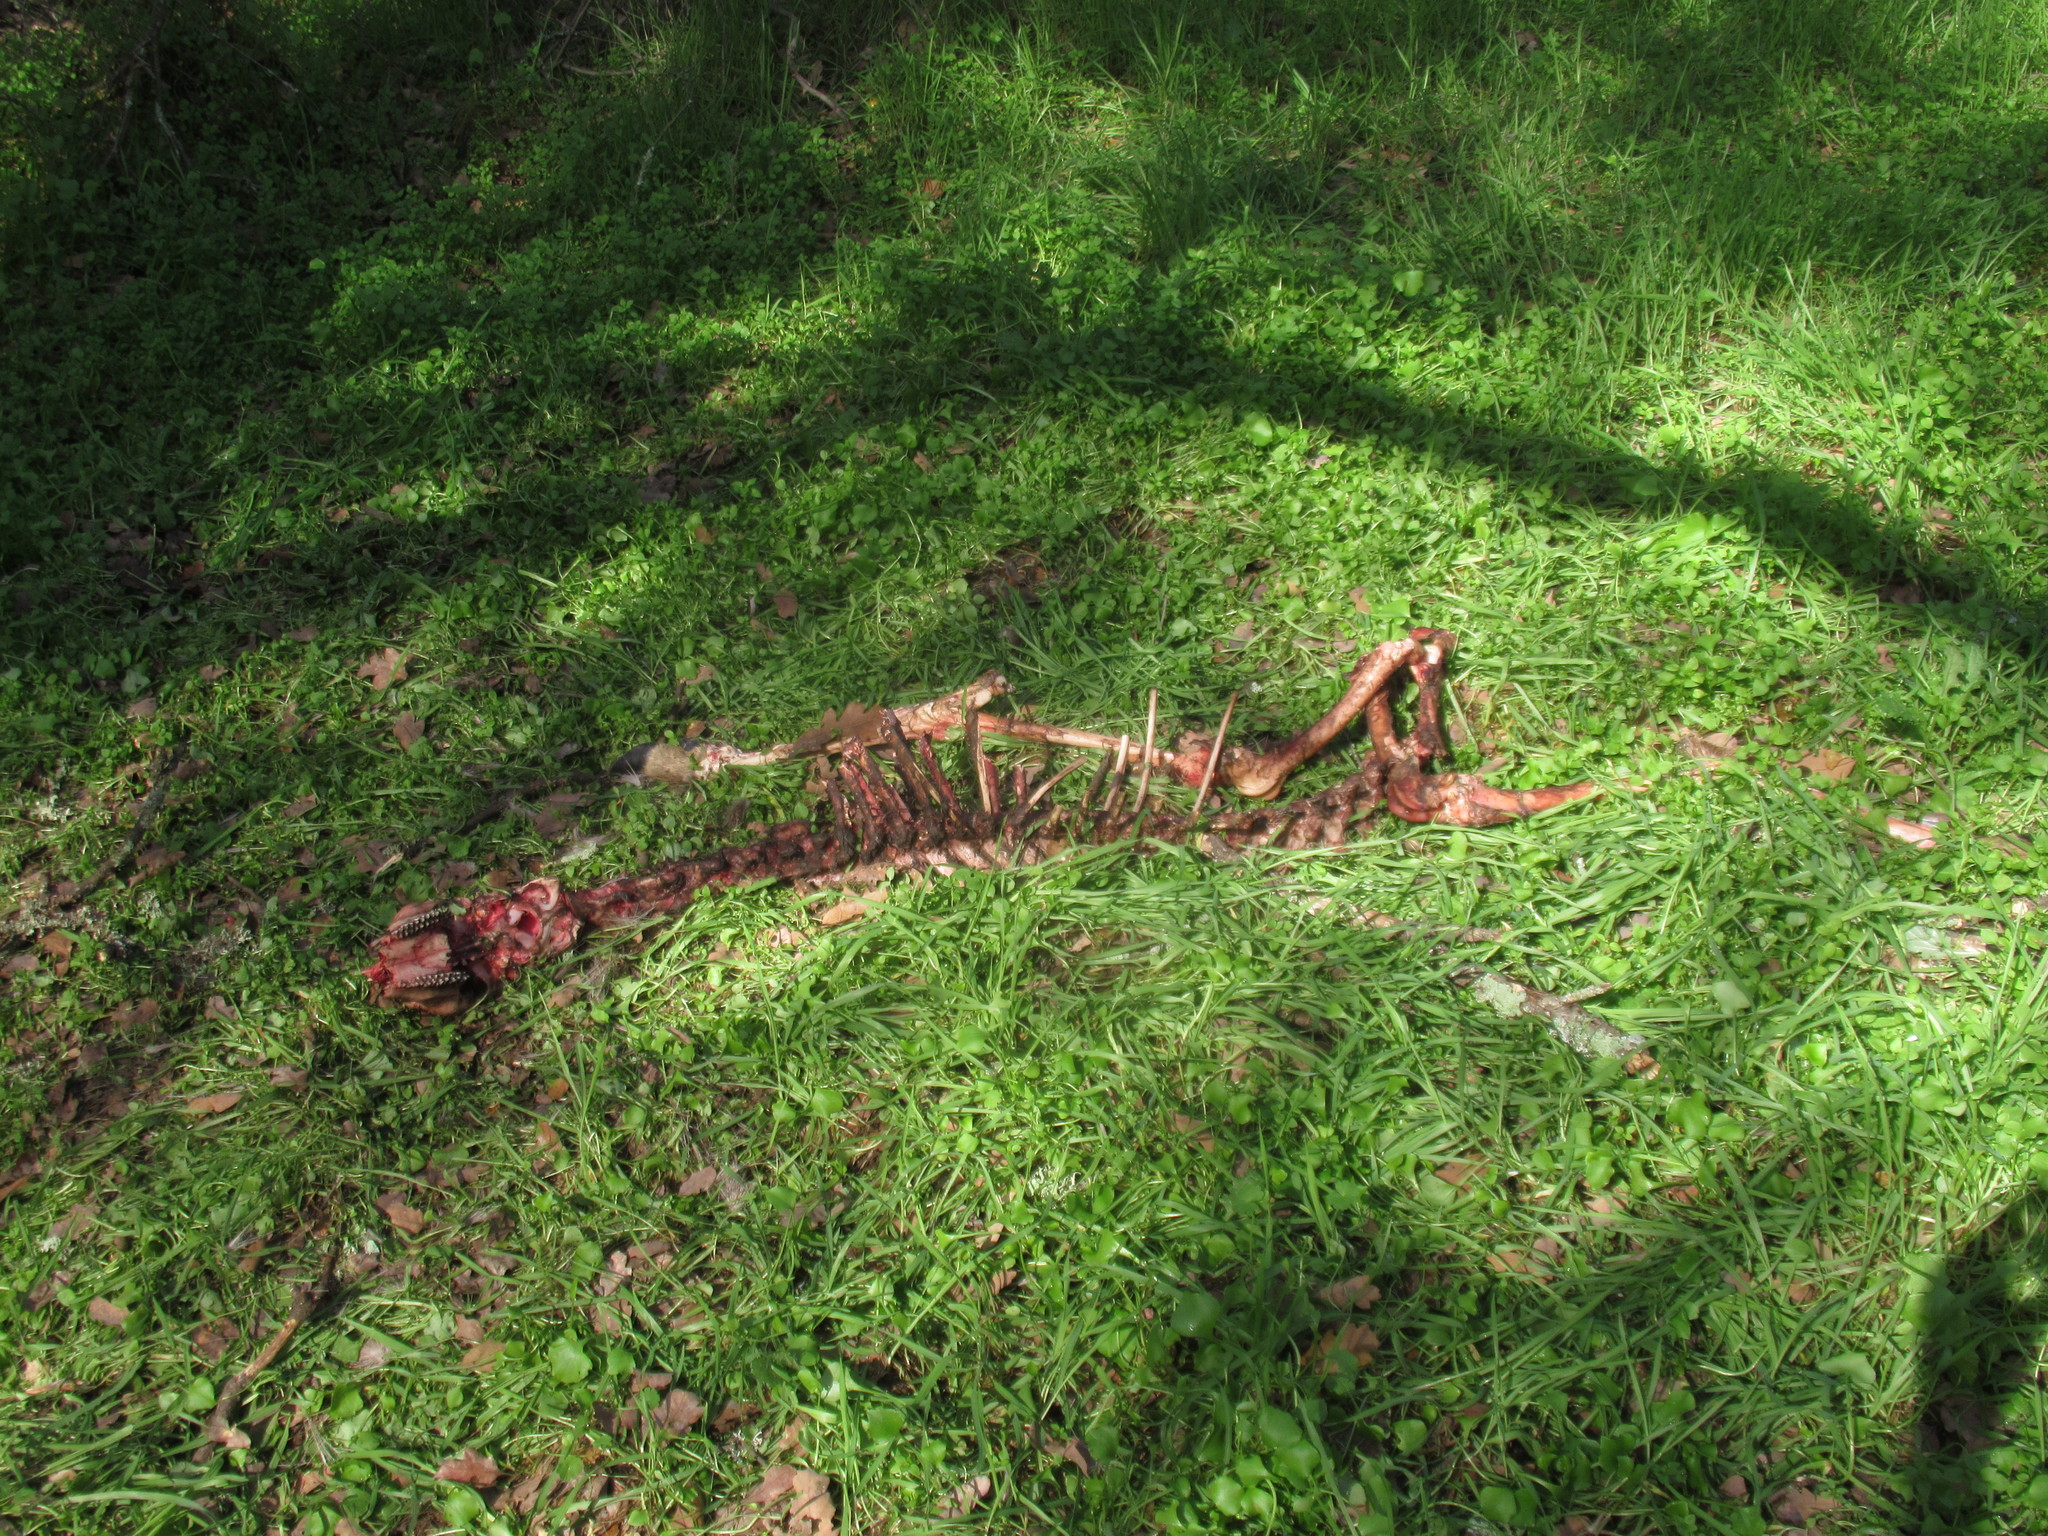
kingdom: Animalia
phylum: Chordata
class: Mammalia
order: Artiodactyla
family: Cervidae
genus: Odocoileus
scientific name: Odocoileus hemionus
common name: Mule deer
